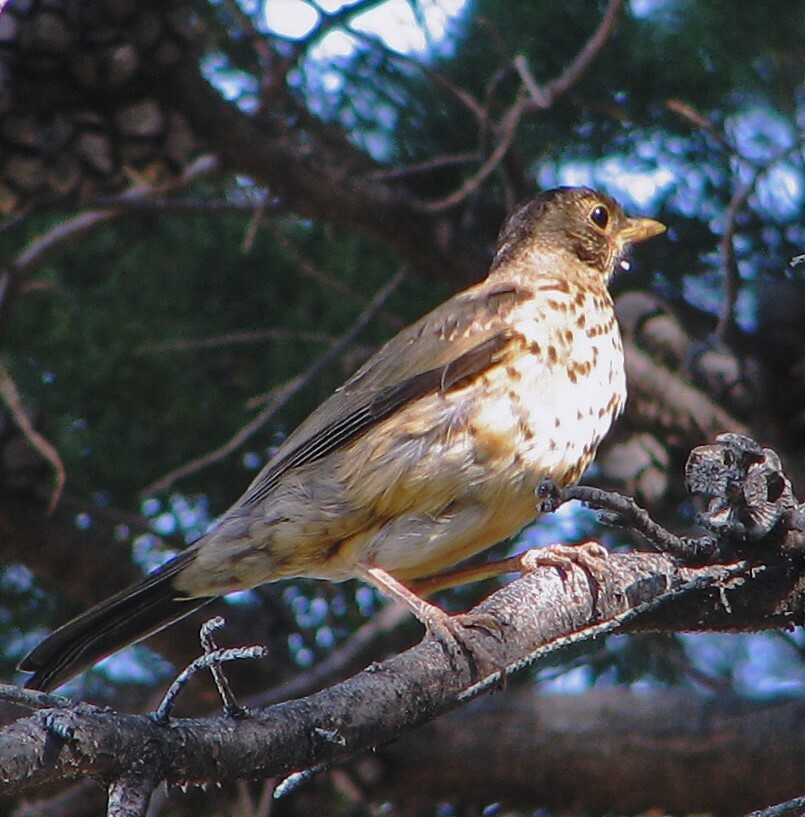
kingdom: Animalia
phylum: Chordata
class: Aves
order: Passeriformes
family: Turdidae
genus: Turdus
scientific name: Turdus falcklandii
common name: Austral thrush
